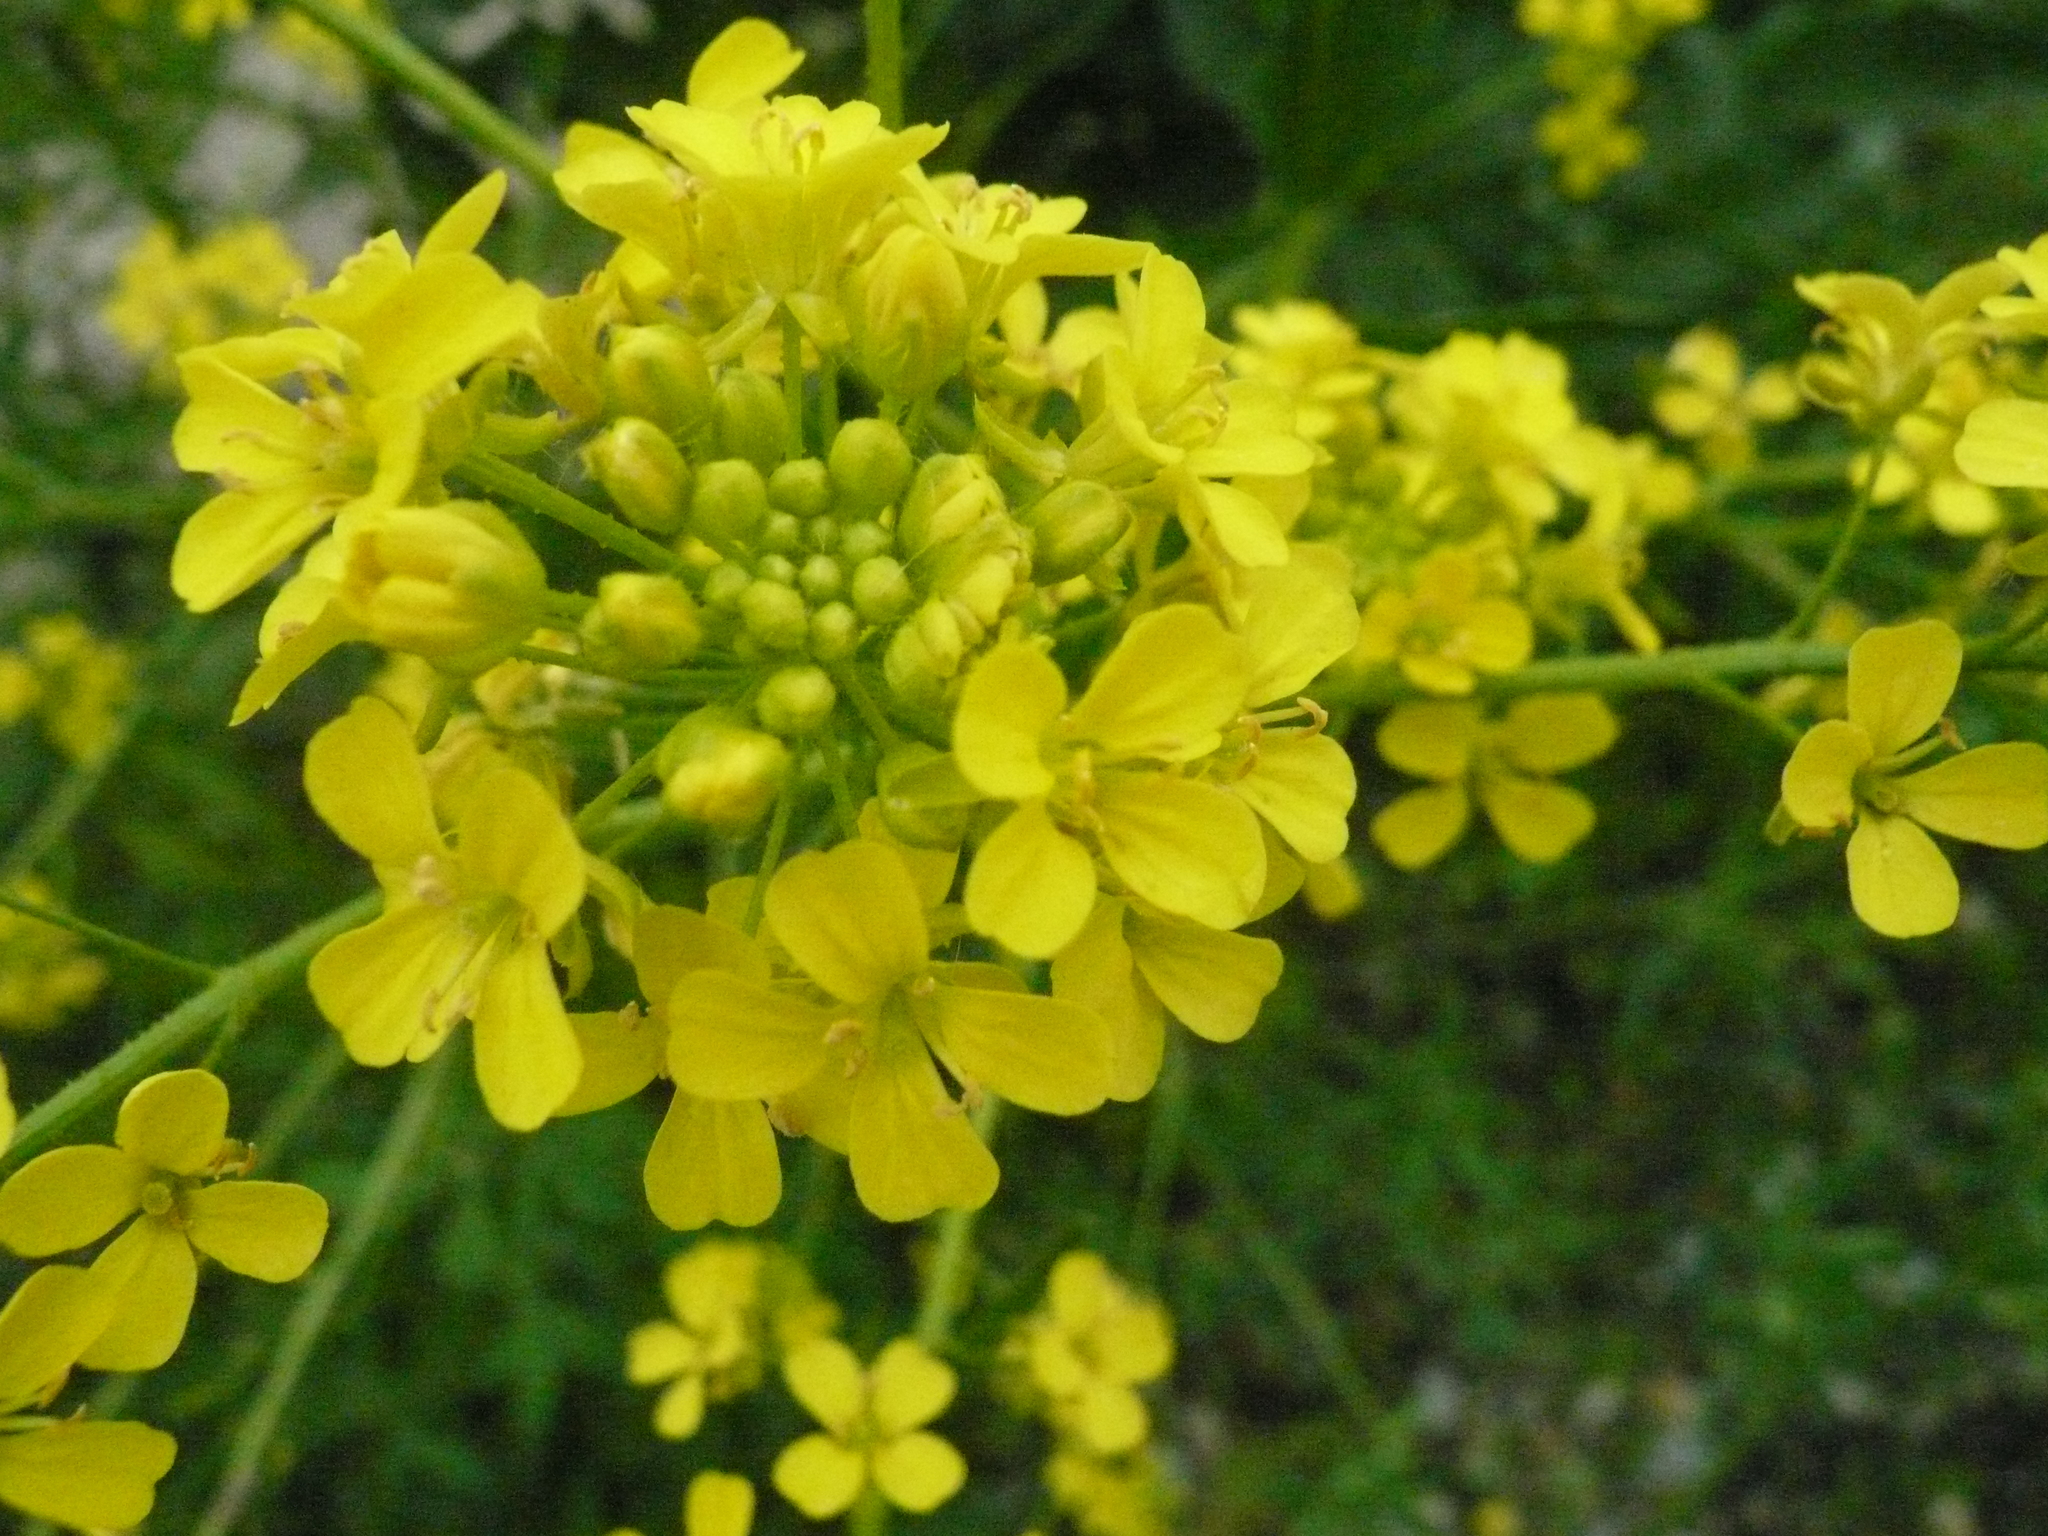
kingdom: Plantae
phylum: Tracheophyta
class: Magnoliopsida
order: Brassicales
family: Brassicaceae
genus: Bunias
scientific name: Bunias orientalis
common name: Warty-cabbage
